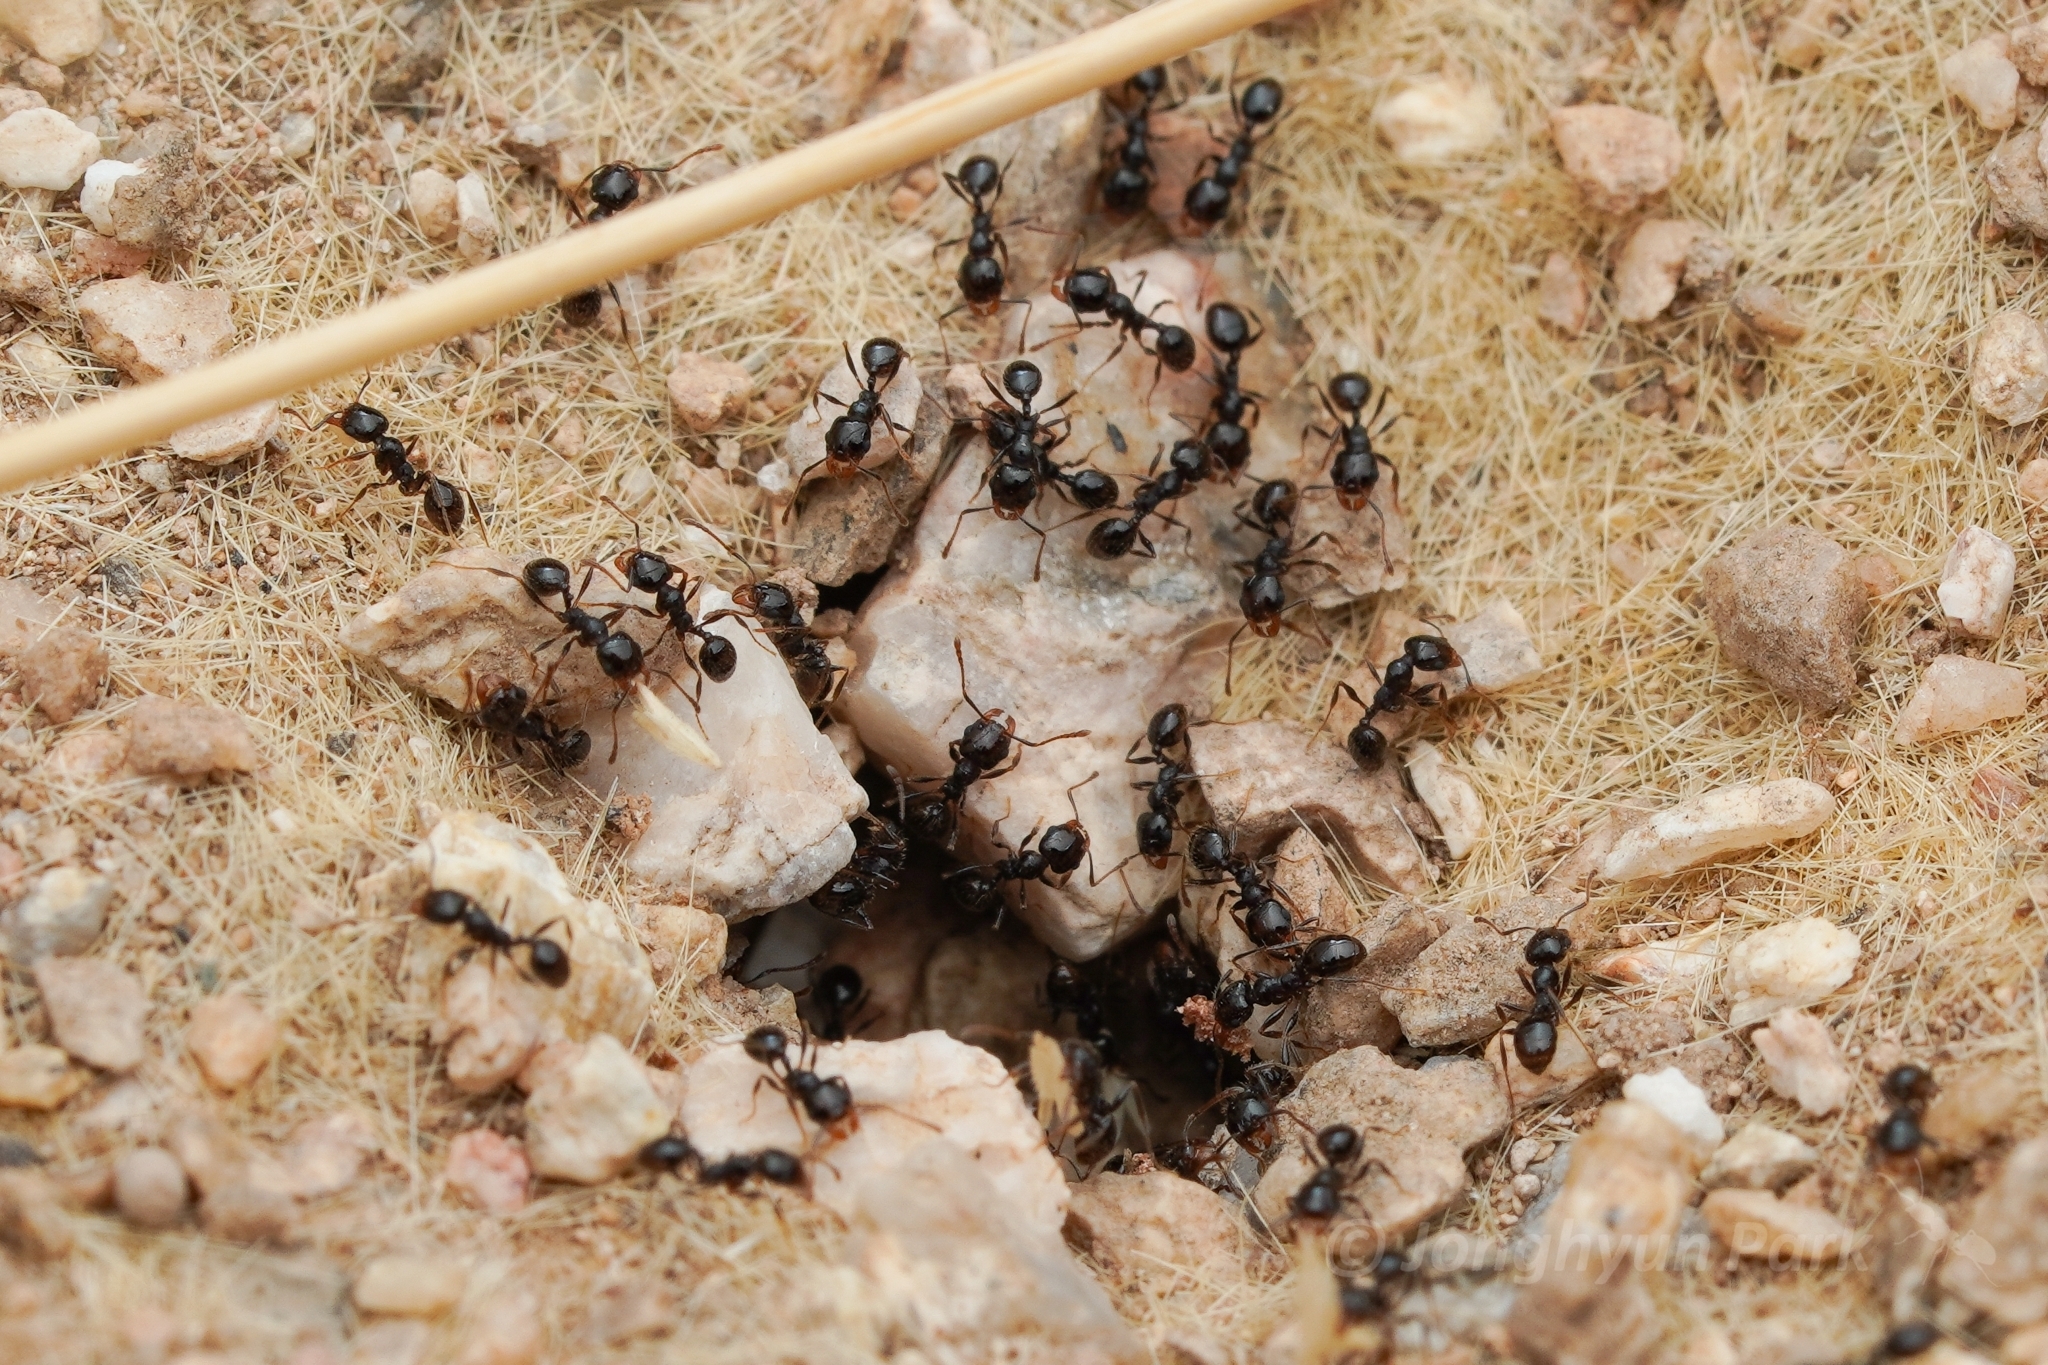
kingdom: Animalia
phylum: Arthropoda
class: Insecta
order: Hymenoptera
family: Formicidae
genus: Pheidole
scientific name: Pheidole xerophila
